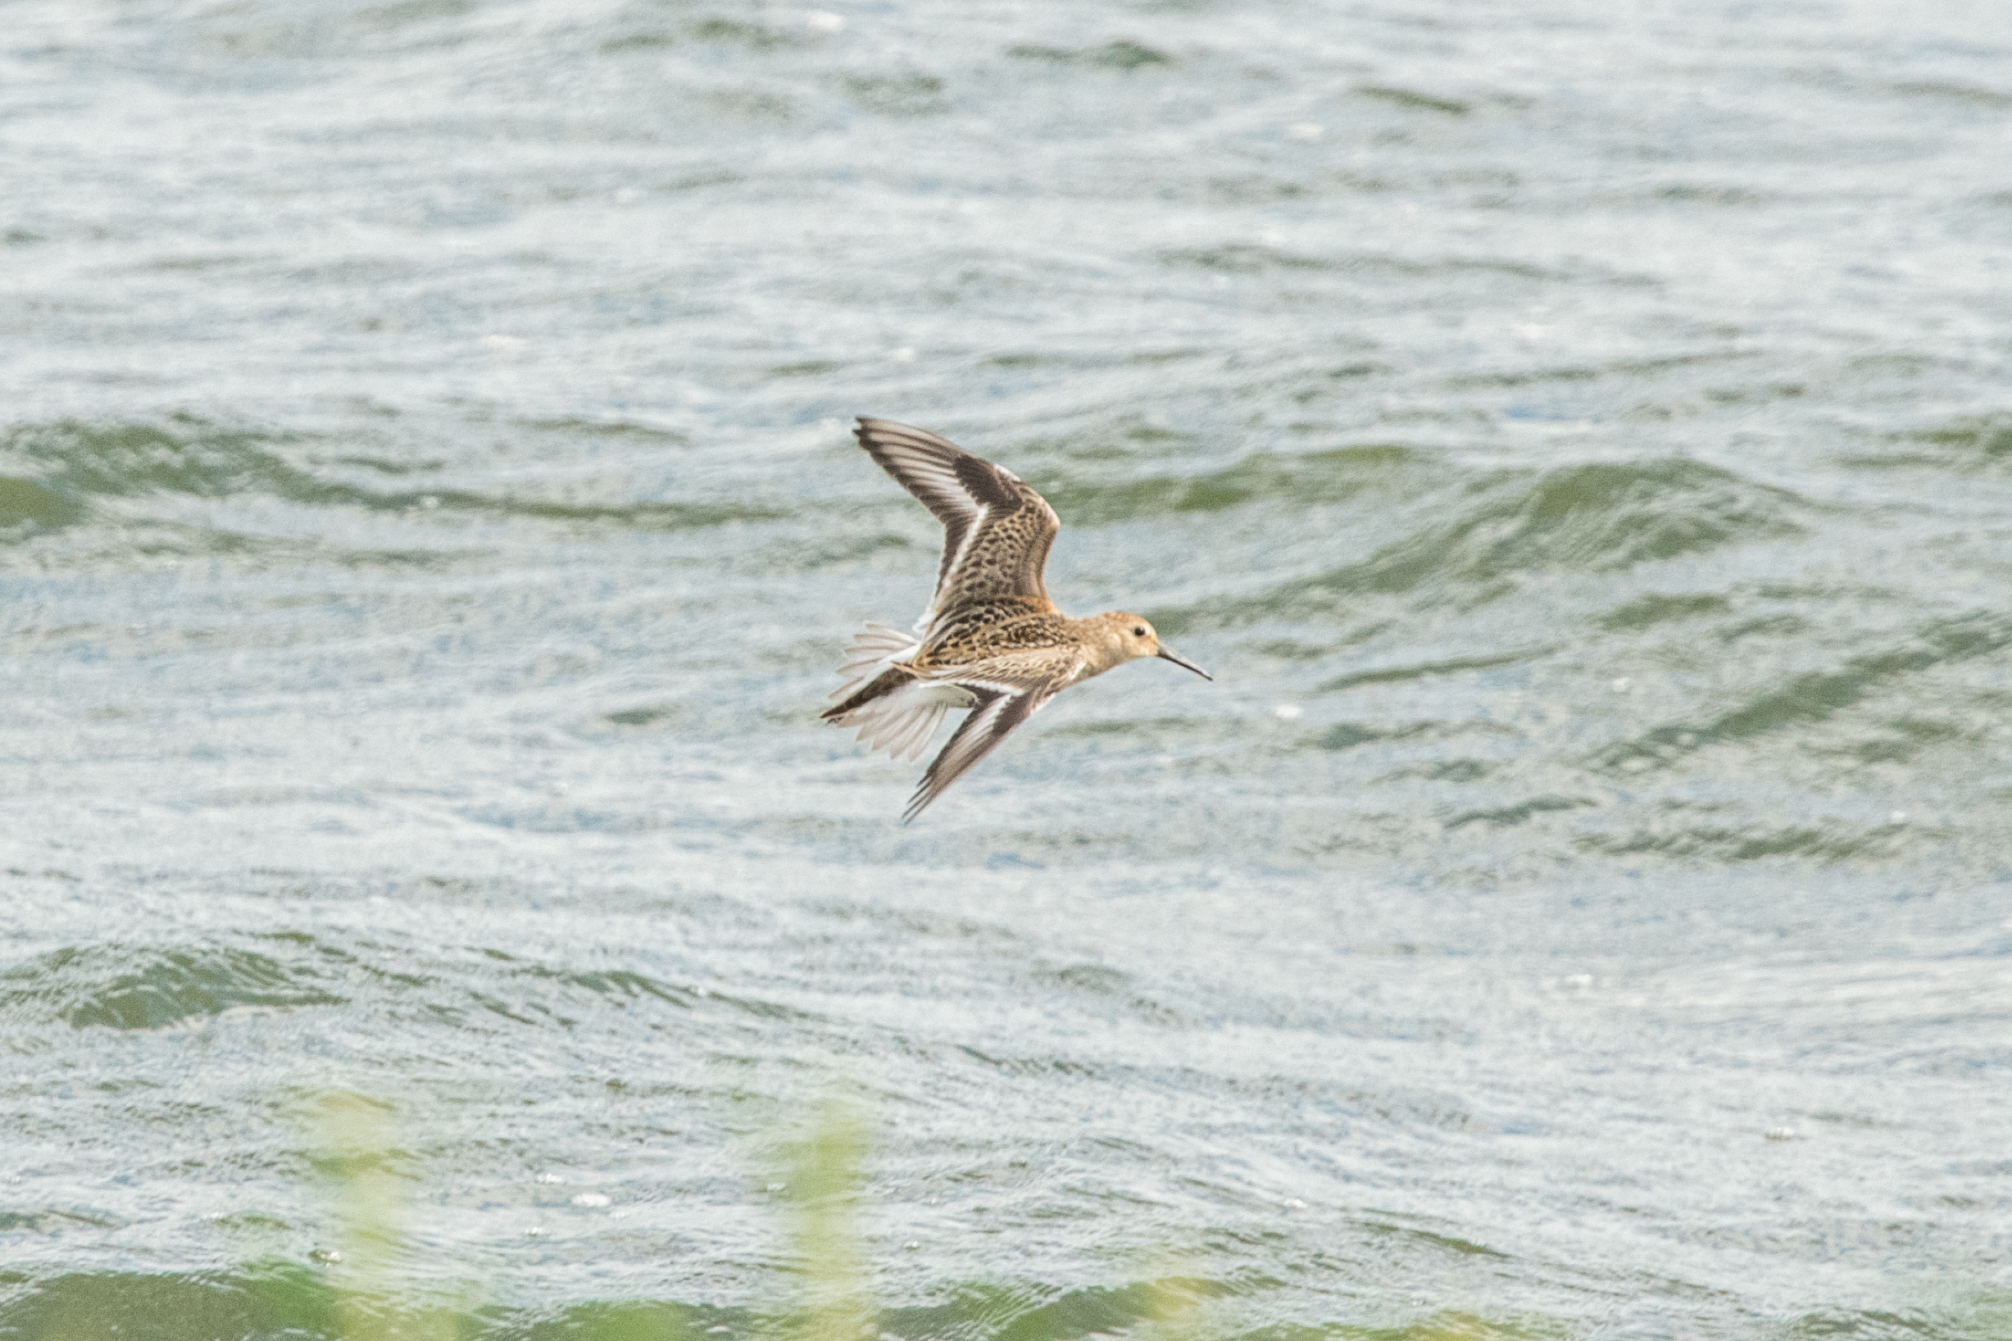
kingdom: Animalia
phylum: Chordata
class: Aves
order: Charadriiformes
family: Scolopacidae
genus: Calidris
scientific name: Calidris alpina
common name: Dunlin
